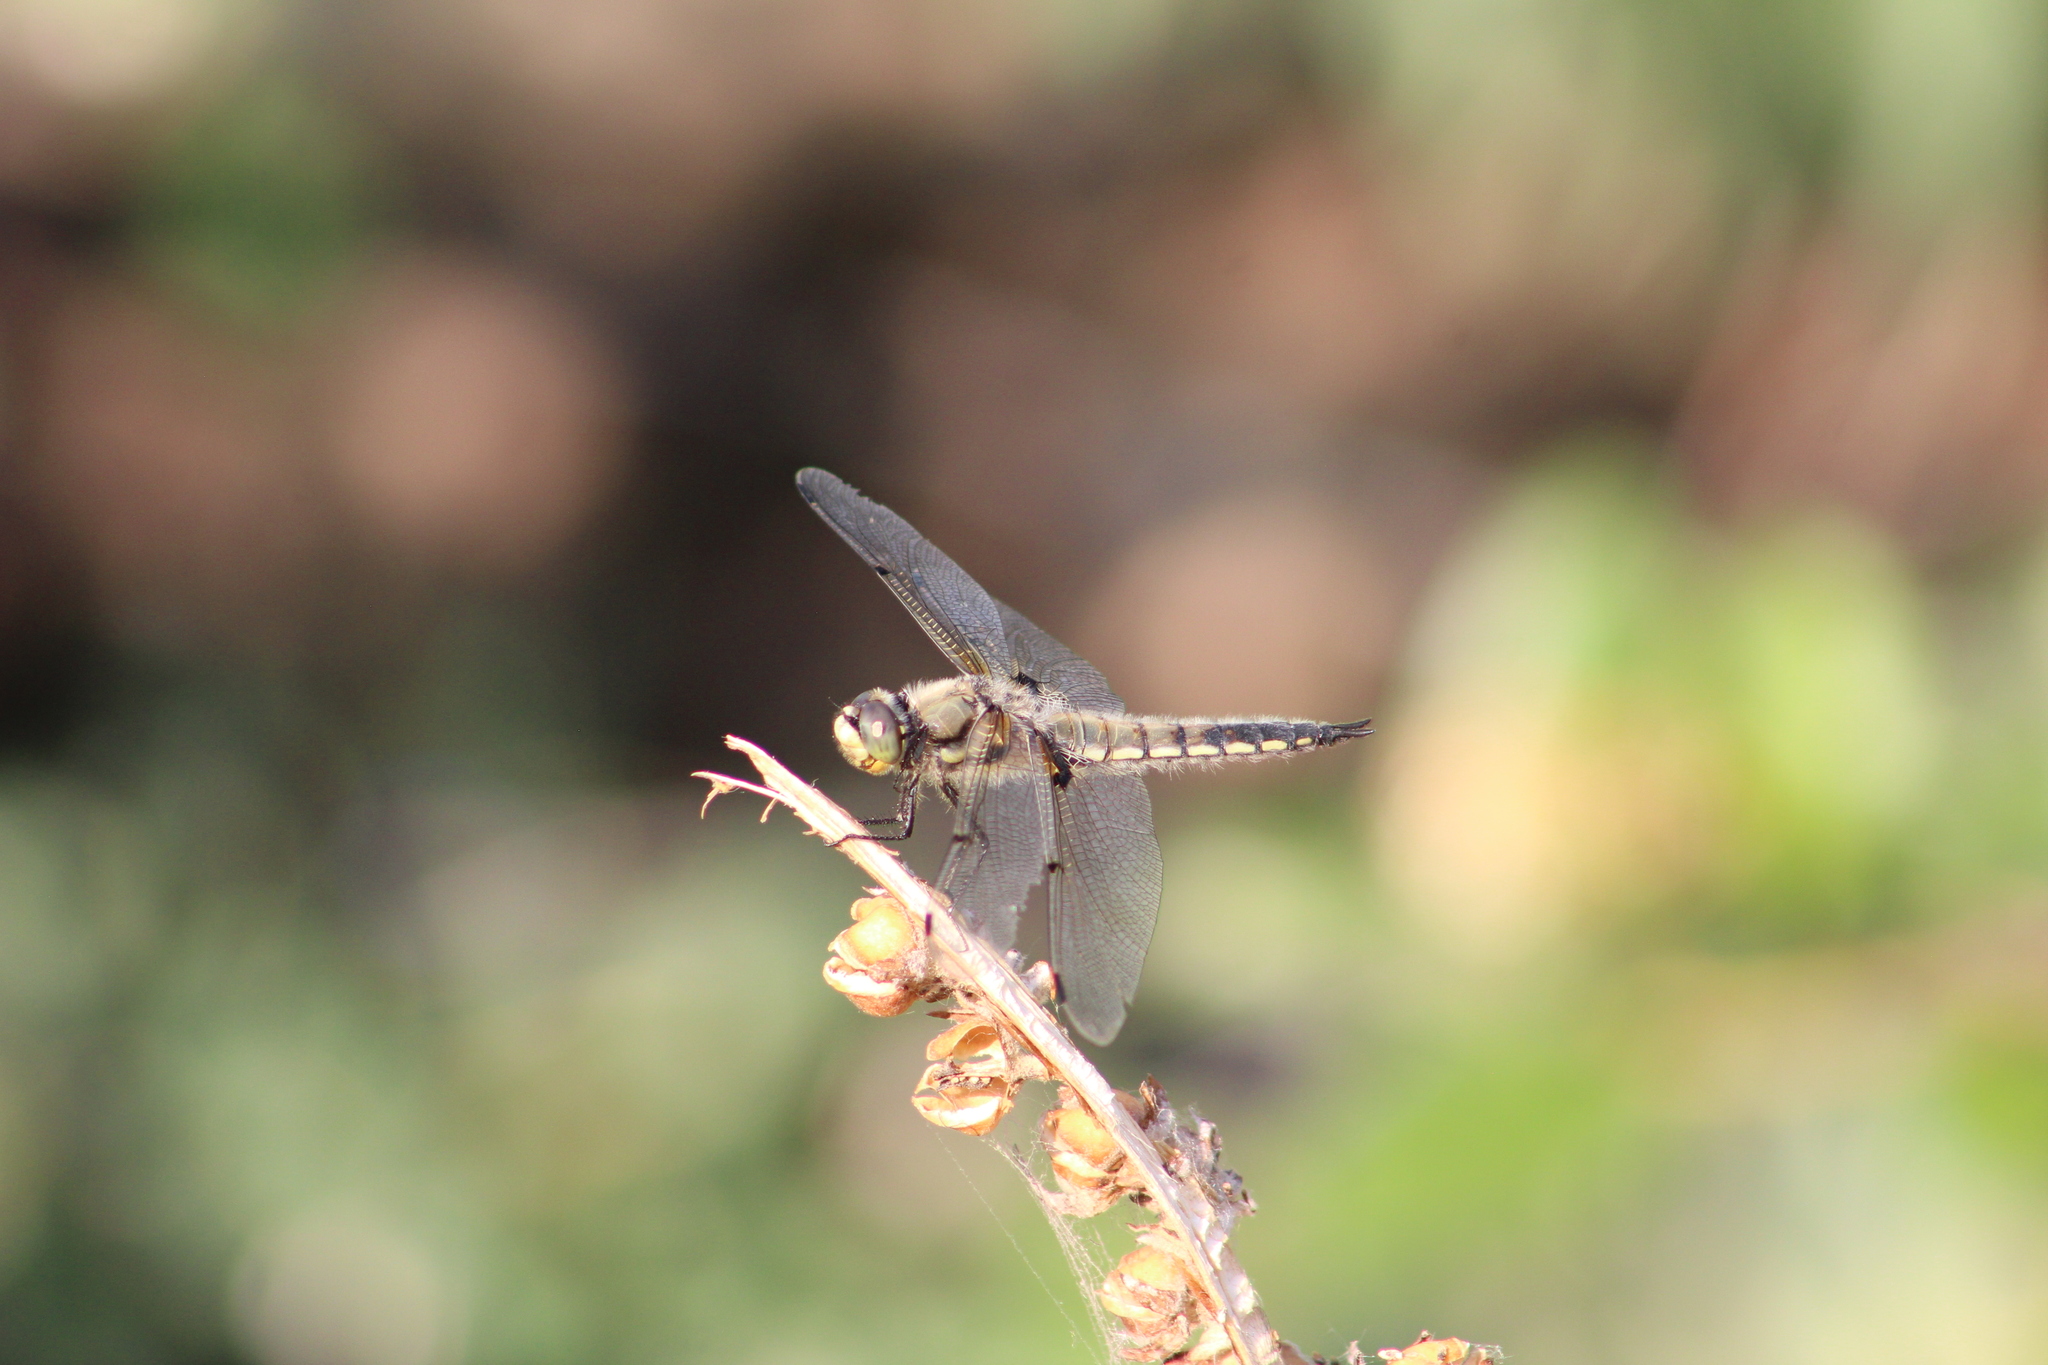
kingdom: Animalia
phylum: Arthropoda
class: Insecta
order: Odonata
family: Libellulidae
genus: Libellula
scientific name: Libellula quadrimaculata
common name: Four-spotted chaser
